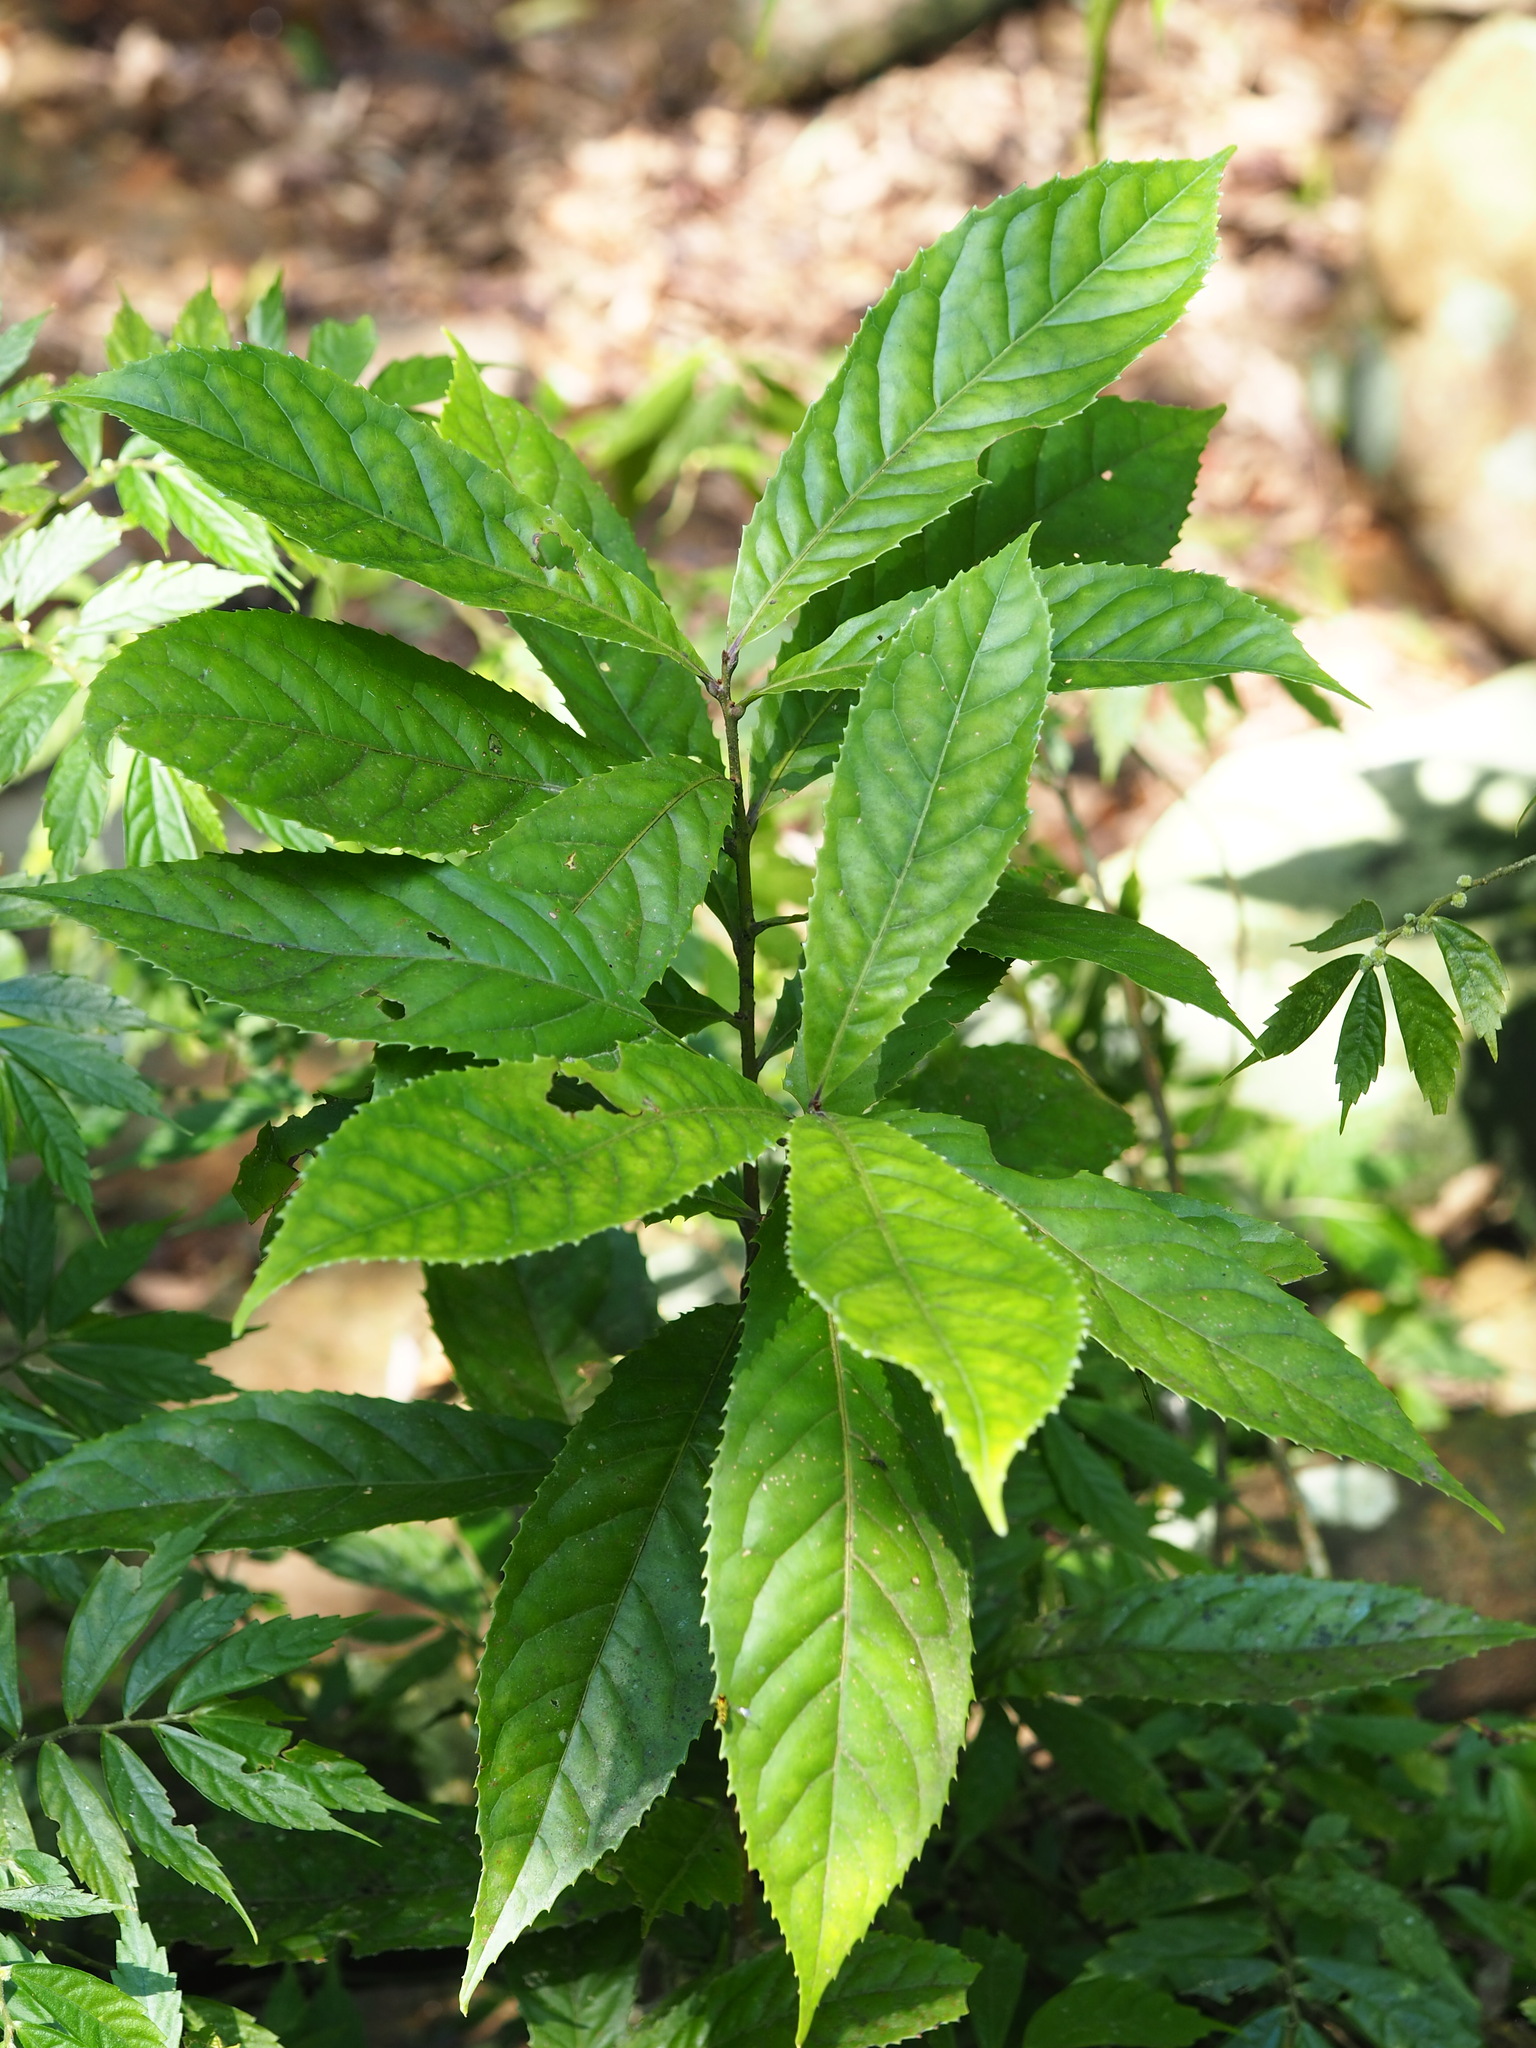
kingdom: Plantae
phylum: Tracheophyta
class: Magnoliopsida
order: Proteales
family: Proteaceae
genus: Helicia
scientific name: Helicia formosana
